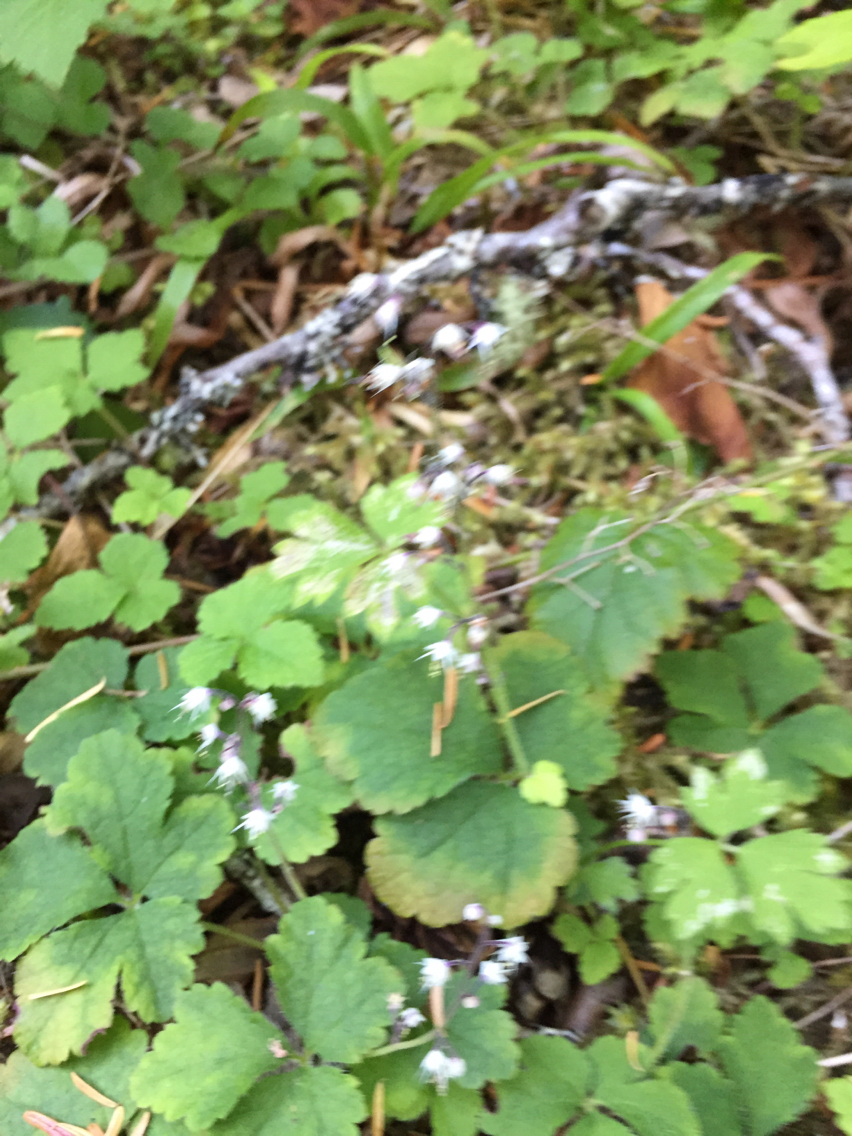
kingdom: Plantae
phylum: Tracheophyta
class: Magnoliopsida
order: Saxifragales
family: Saxifragaceae
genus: Tiarella
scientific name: Tiarella trifoliata
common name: Sugar-scoop
